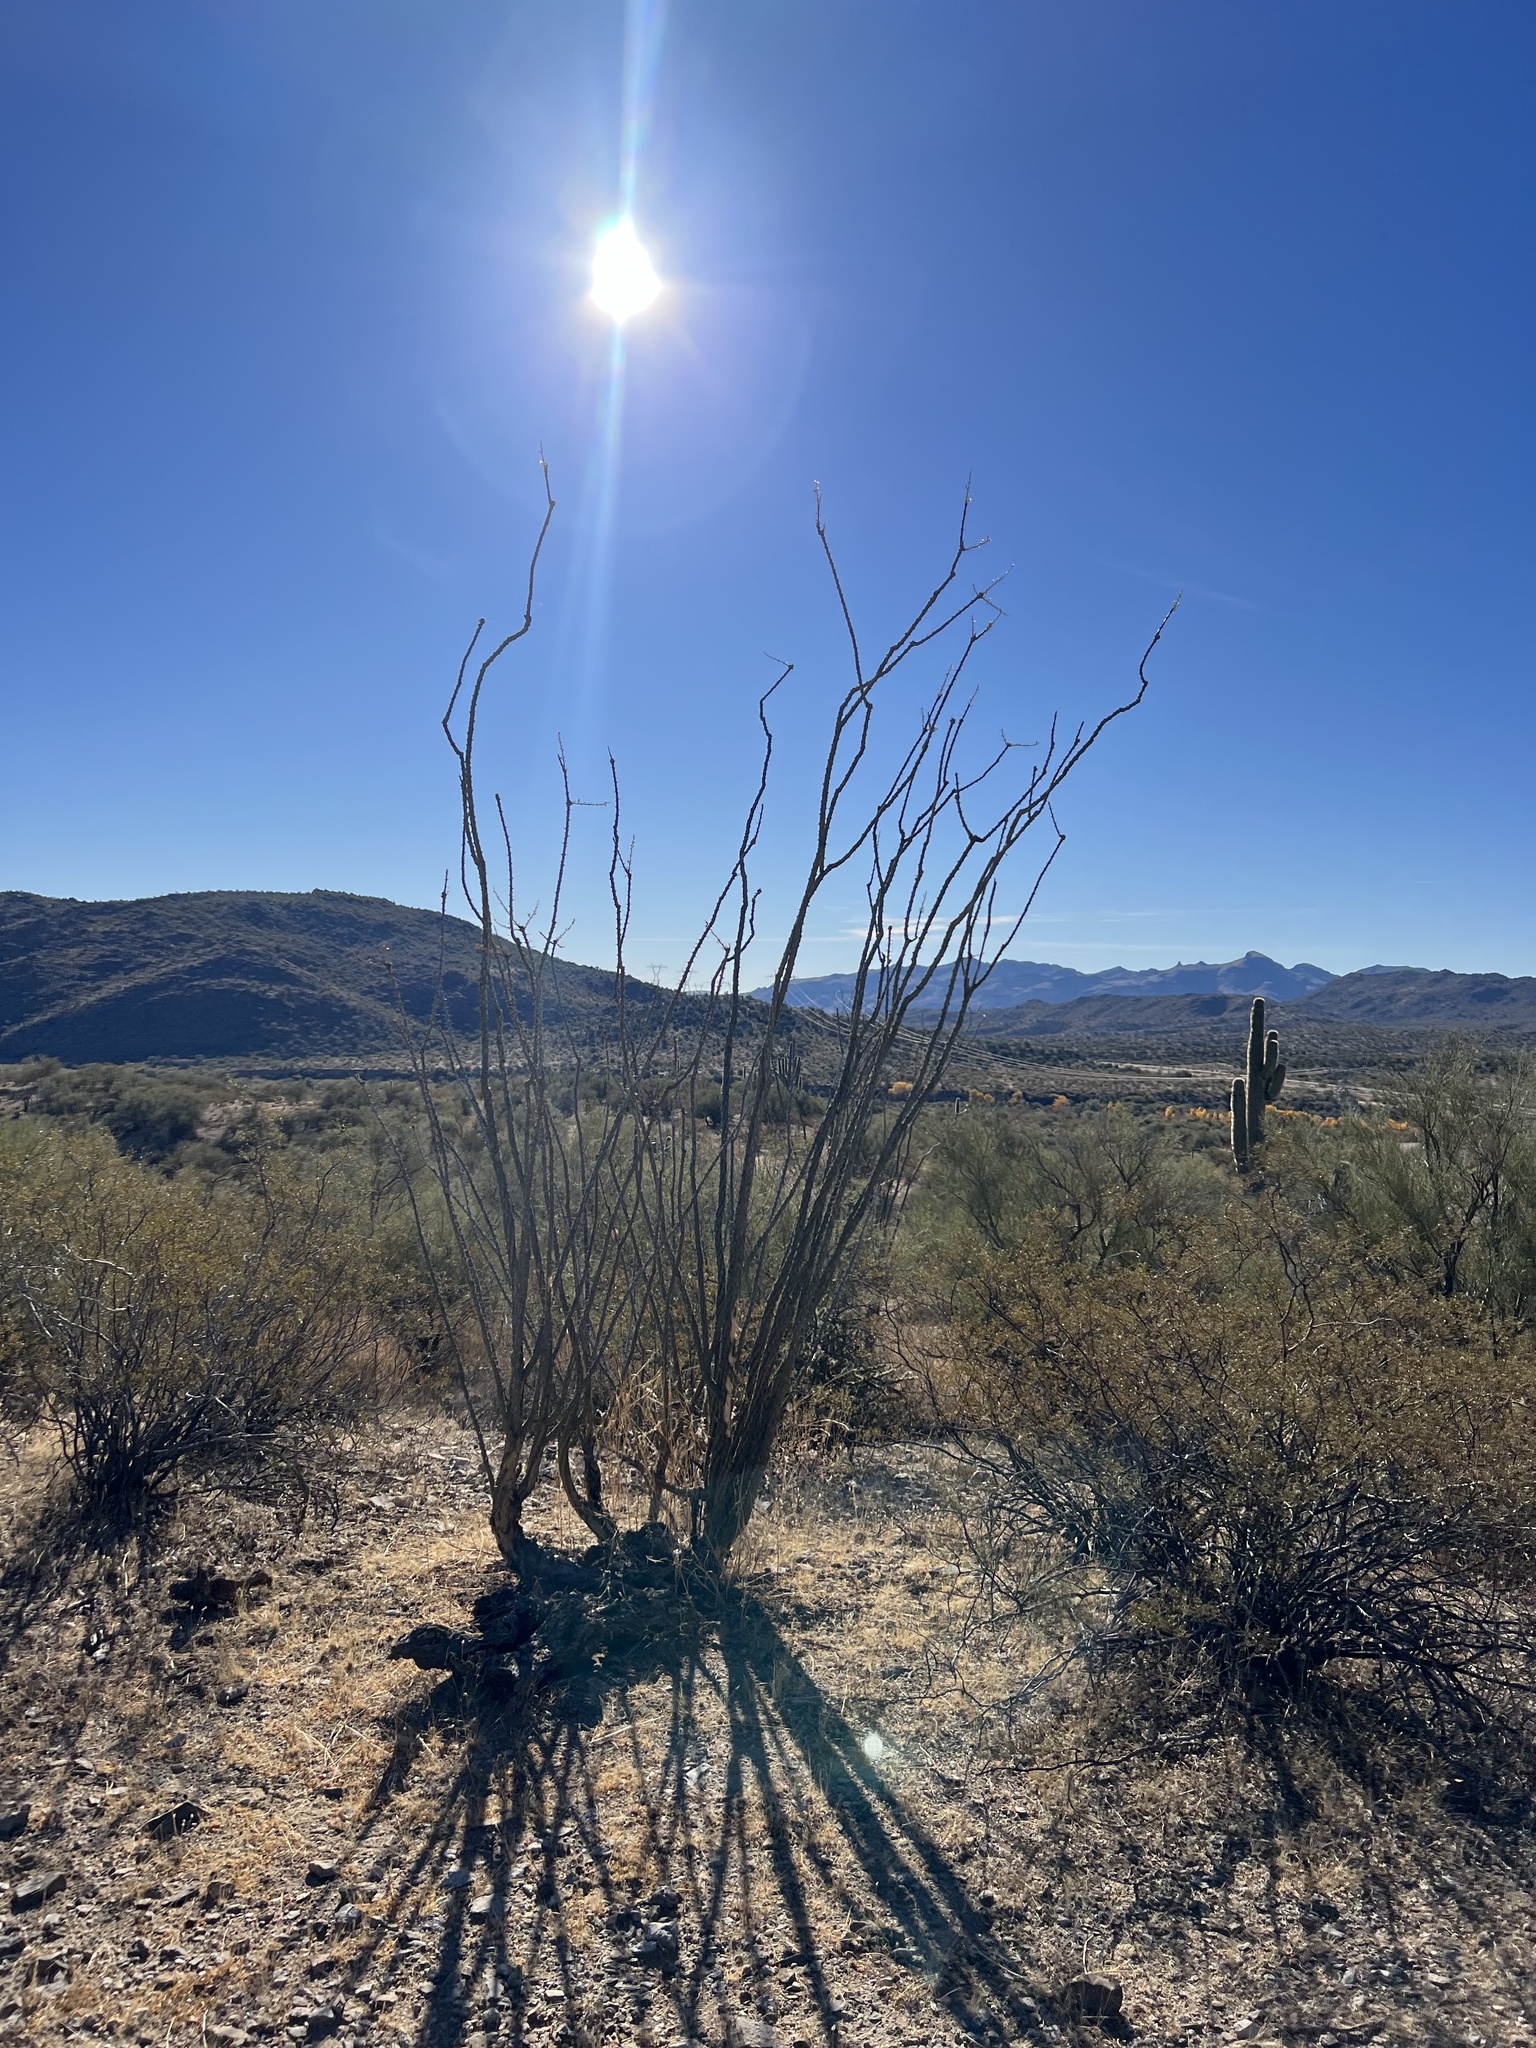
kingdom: Plantae
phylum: Tracheophyta
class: Magnoliopsida
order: Ericales
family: Fouquieriaceae
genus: Fouquieria
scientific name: Fouquieria splendens
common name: Vine-cactus
